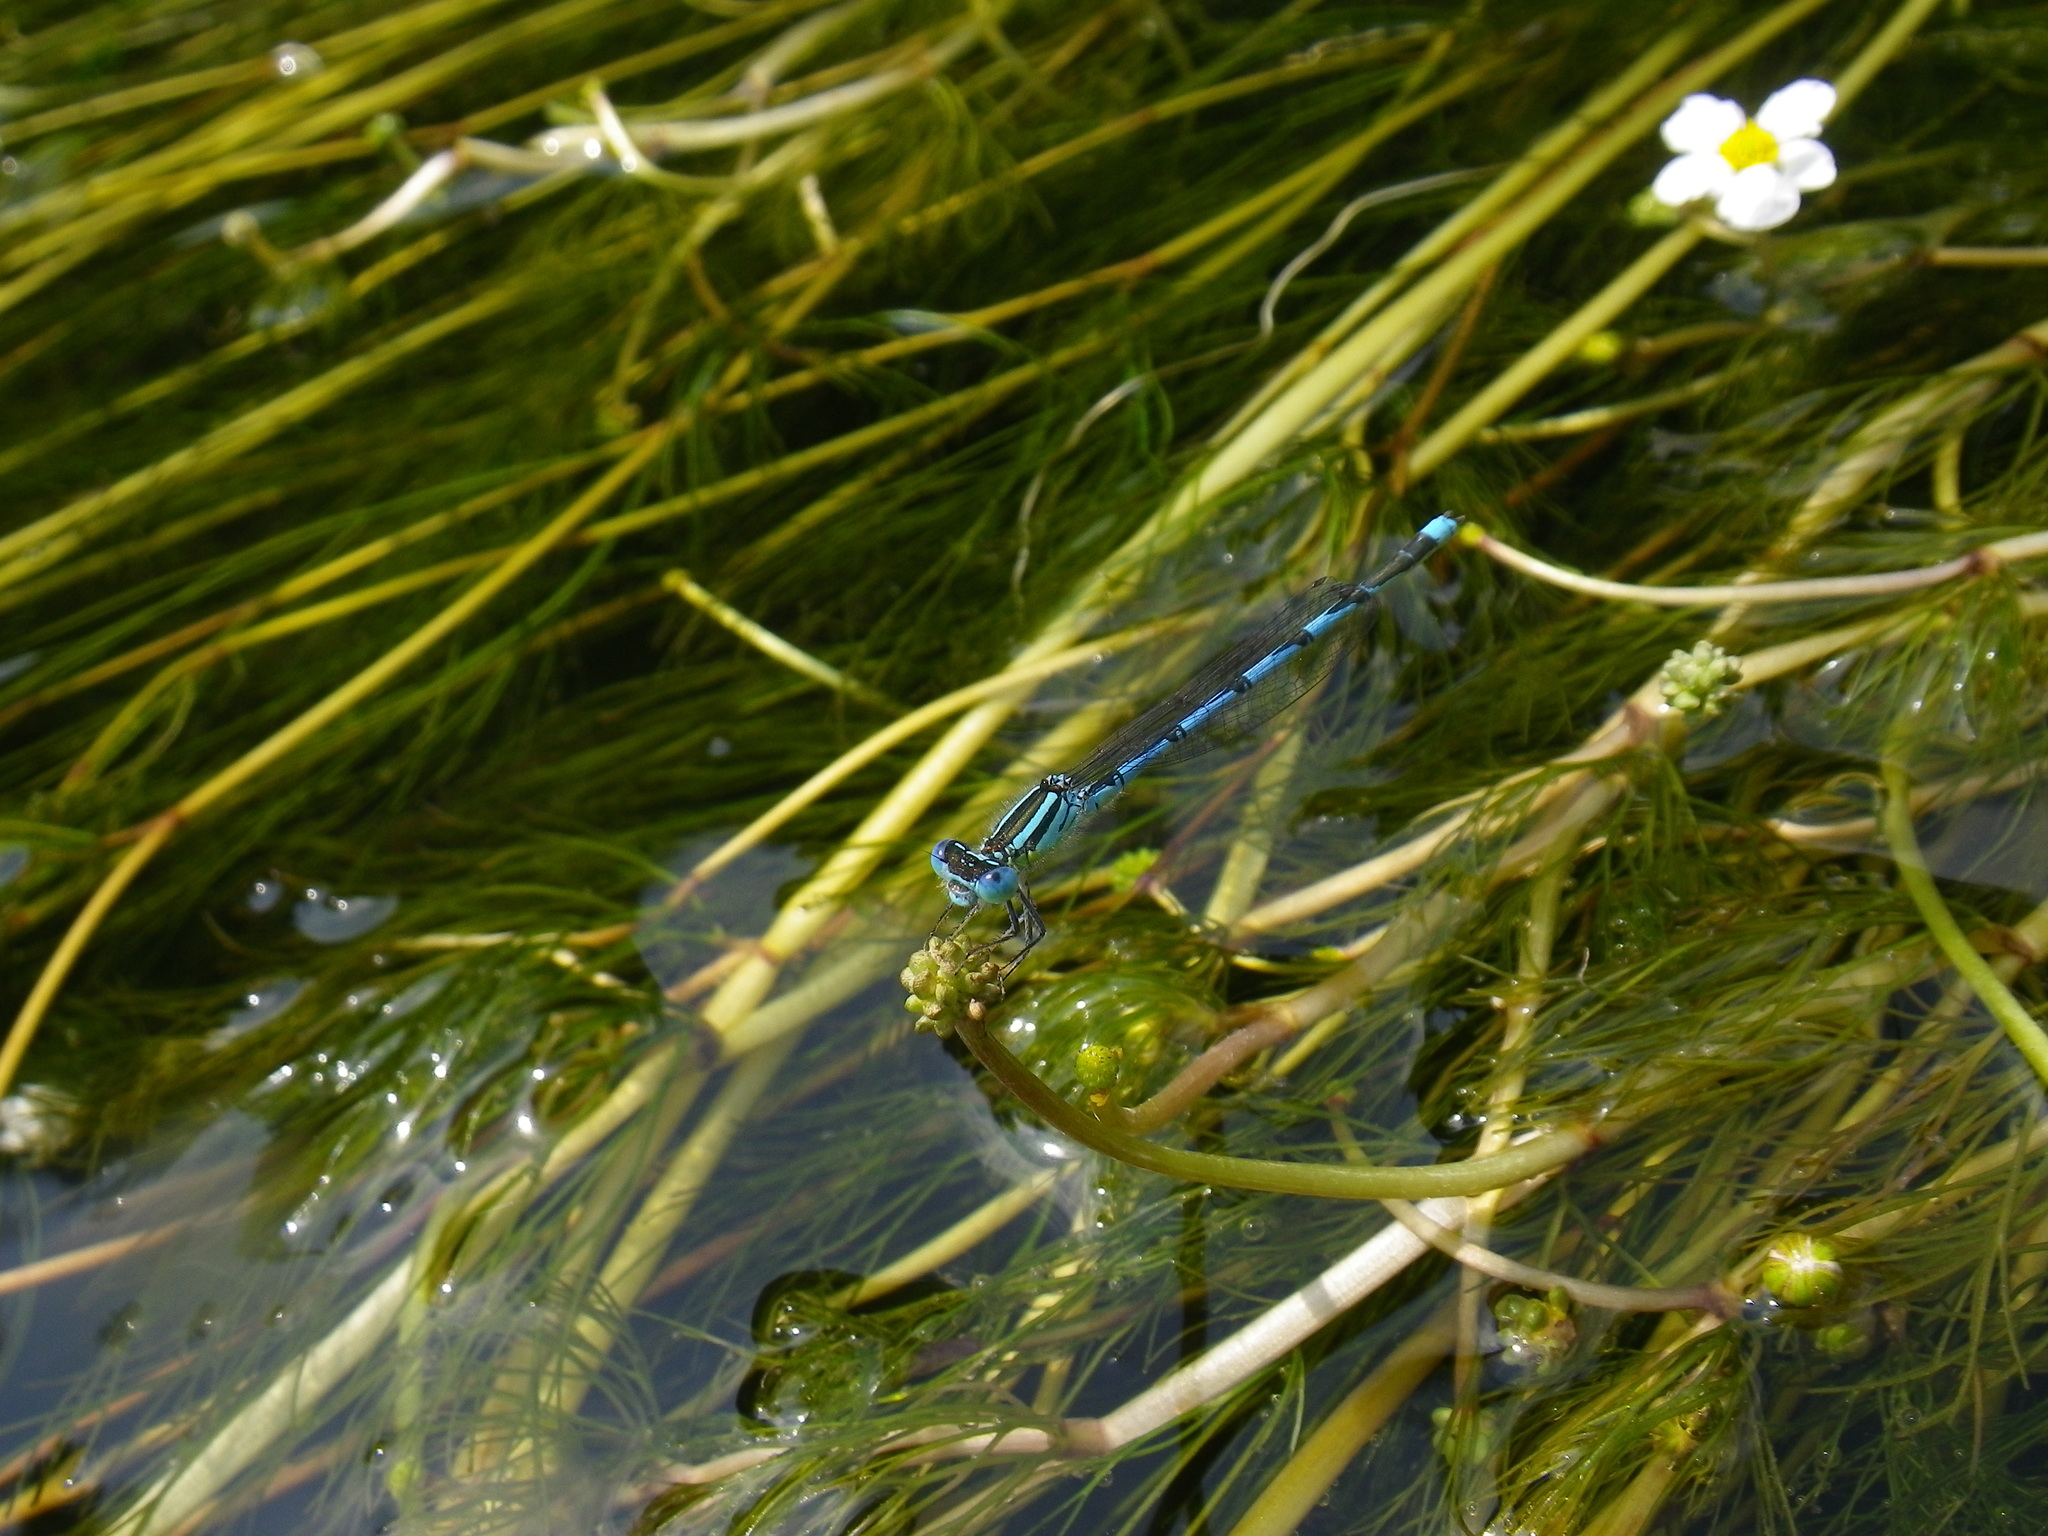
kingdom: Animalia
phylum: Arthropoda
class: Insecta
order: Odonata
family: Coenagrionidae
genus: Erythromma
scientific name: Erythromma lindenii
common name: Blue-eye
